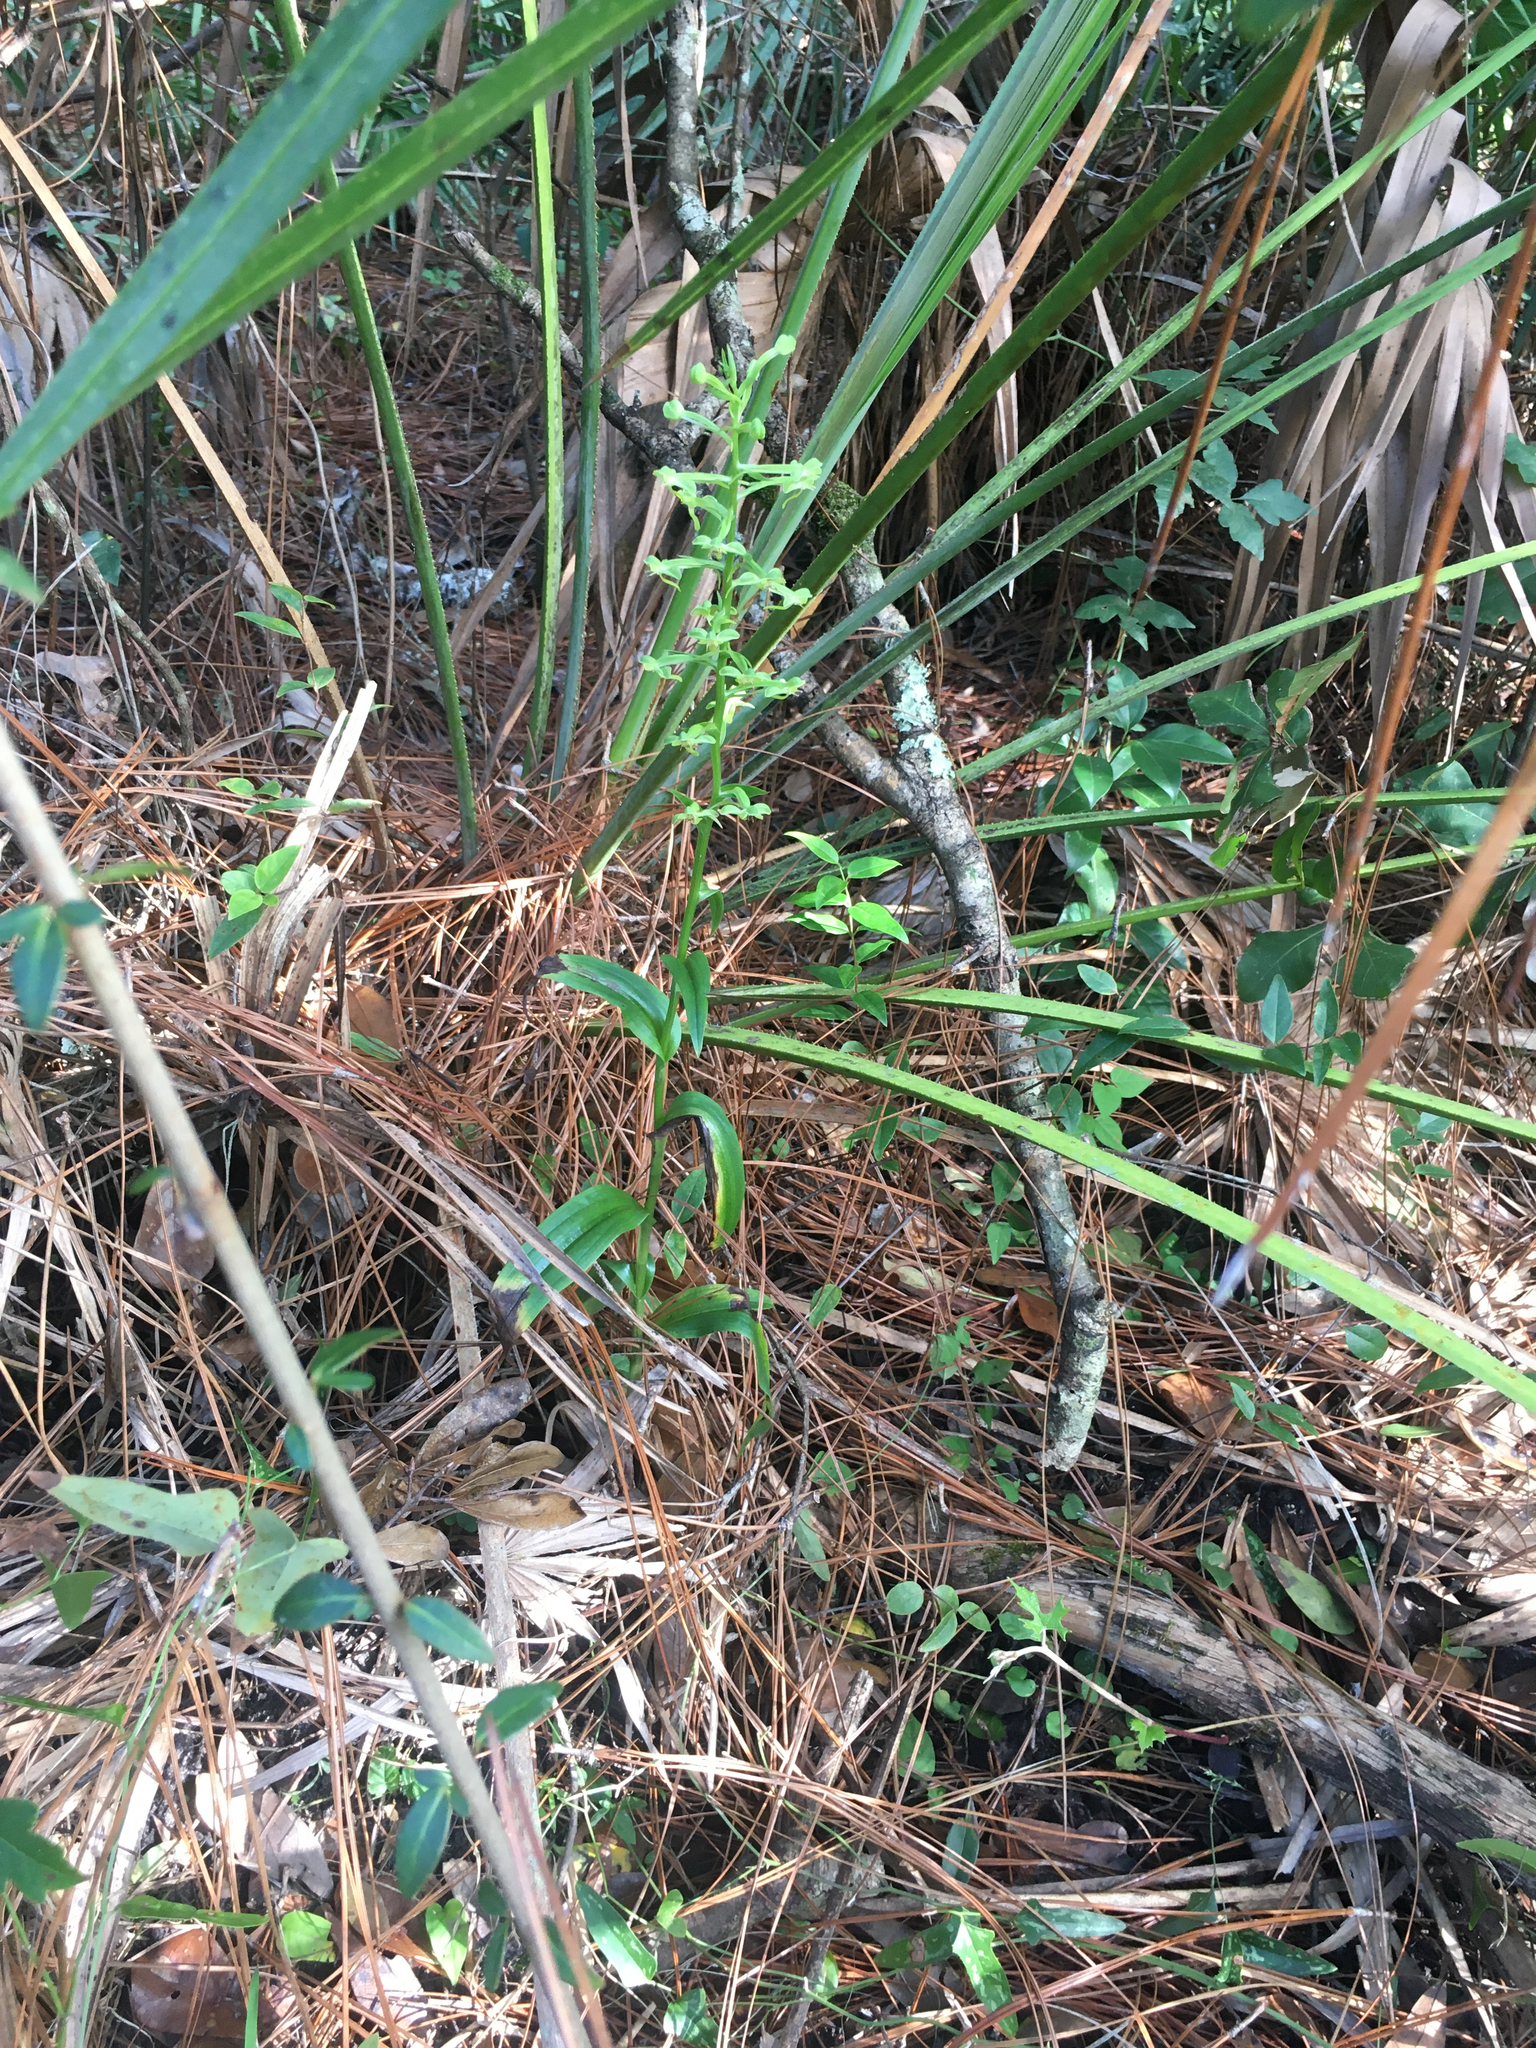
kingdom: Plantae
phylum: Tracheophyta
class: Liliopsida
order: Asparagales
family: Orchidaceae
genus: Habenaria
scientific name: Habenaria floribunda
